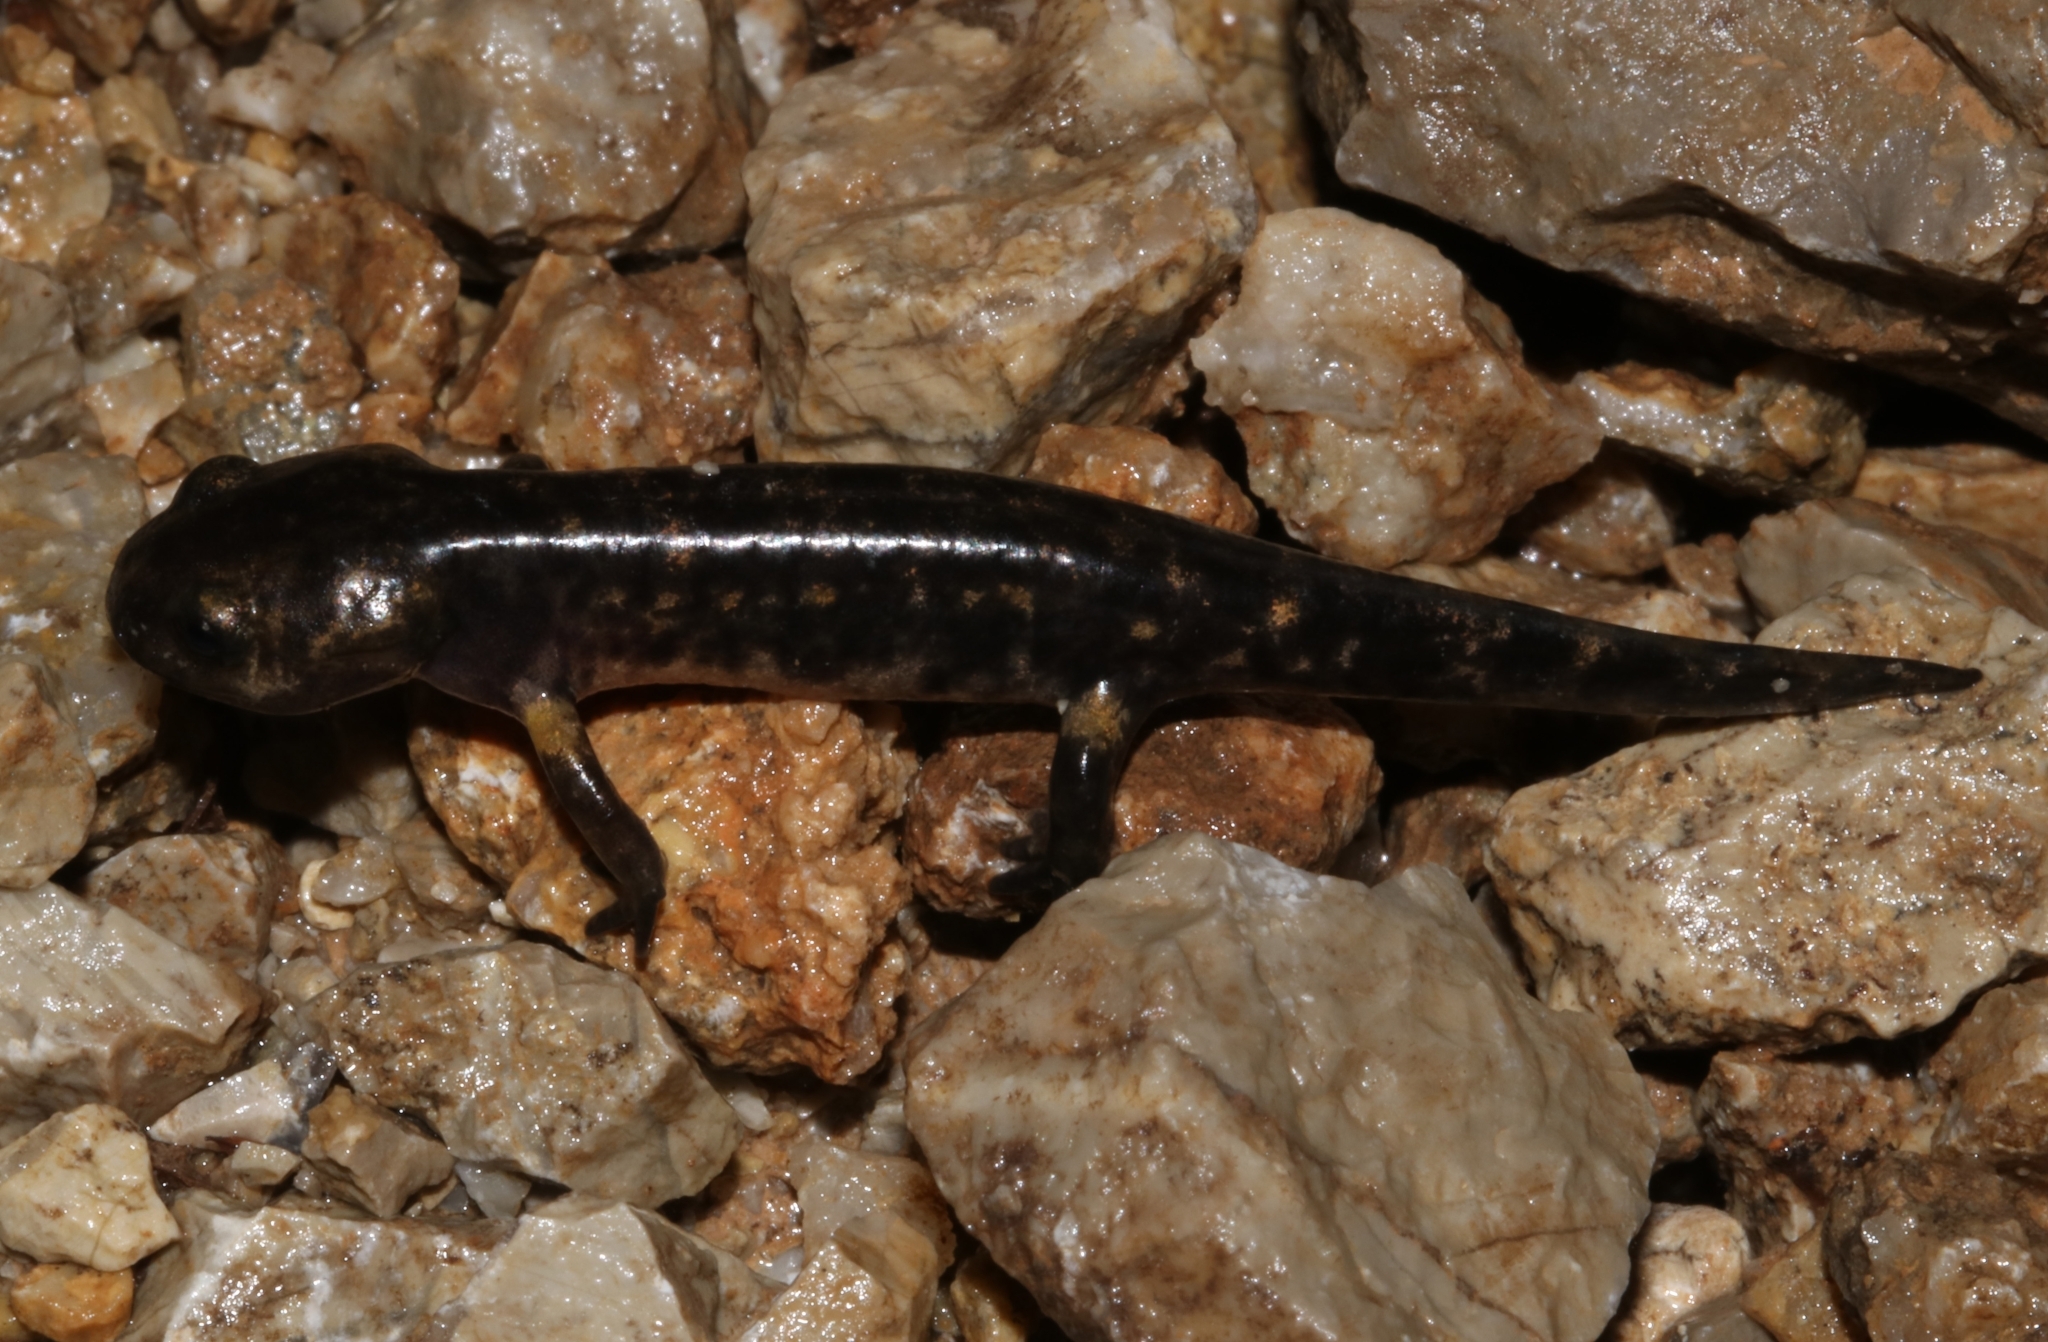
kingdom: Animalia
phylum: Chordata
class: Amphibia
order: Caudata
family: Salamandridae
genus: Salamandra
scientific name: Salamandra salamandra
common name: Fire salamander
